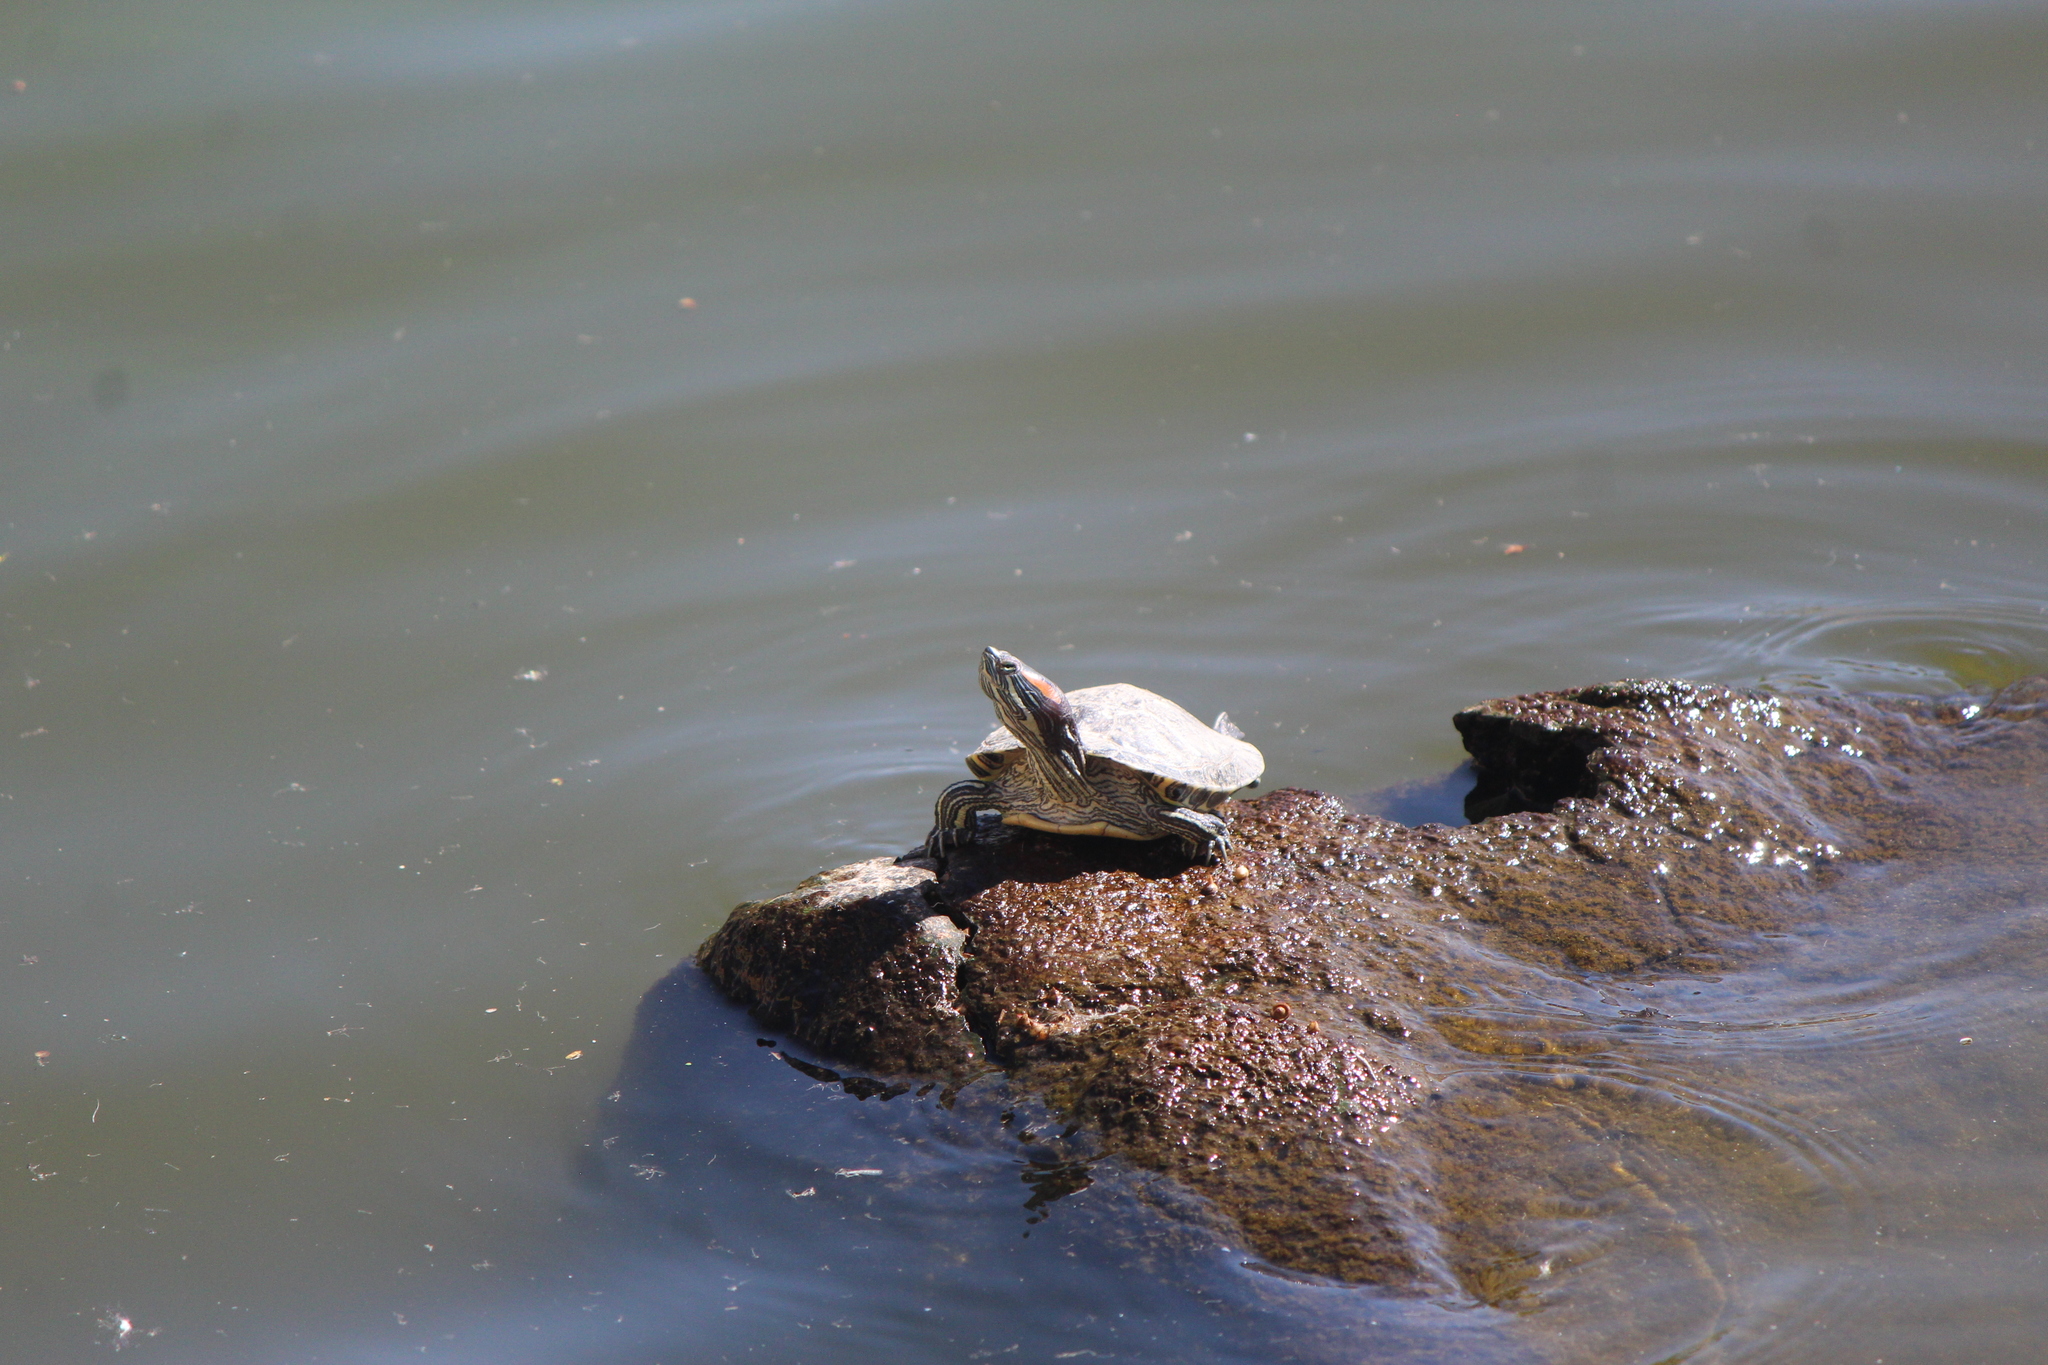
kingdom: Animalia
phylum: Chordata
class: Testudines
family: Emydidae
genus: Trachemys
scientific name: Trachemys scripta
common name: Slider
